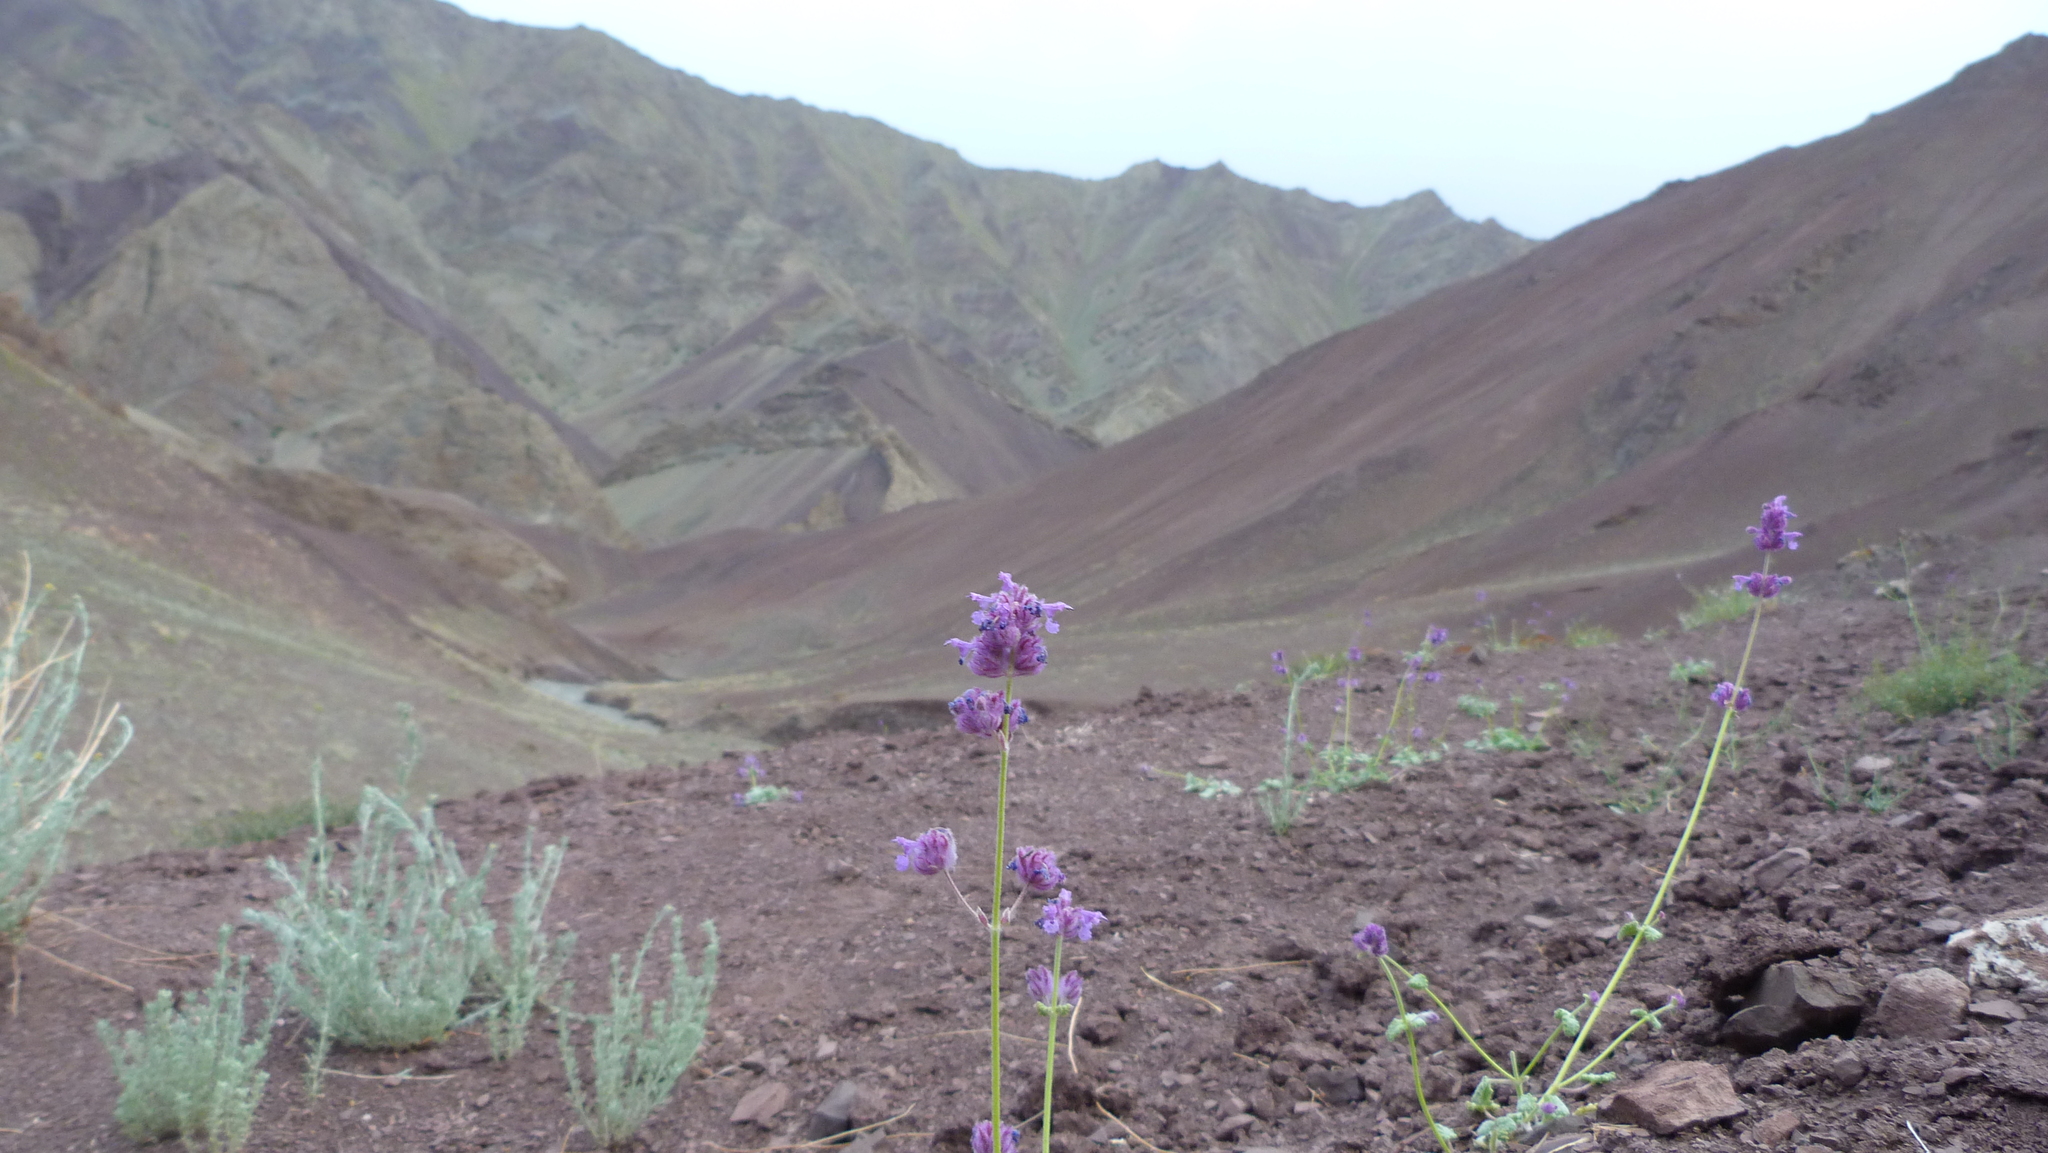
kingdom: Plantae
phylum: Tracheophyta
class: Magnoliopsida
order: Lamiales
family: Lamiaceae
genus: Nepeta
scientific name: Nepeta floccosa
